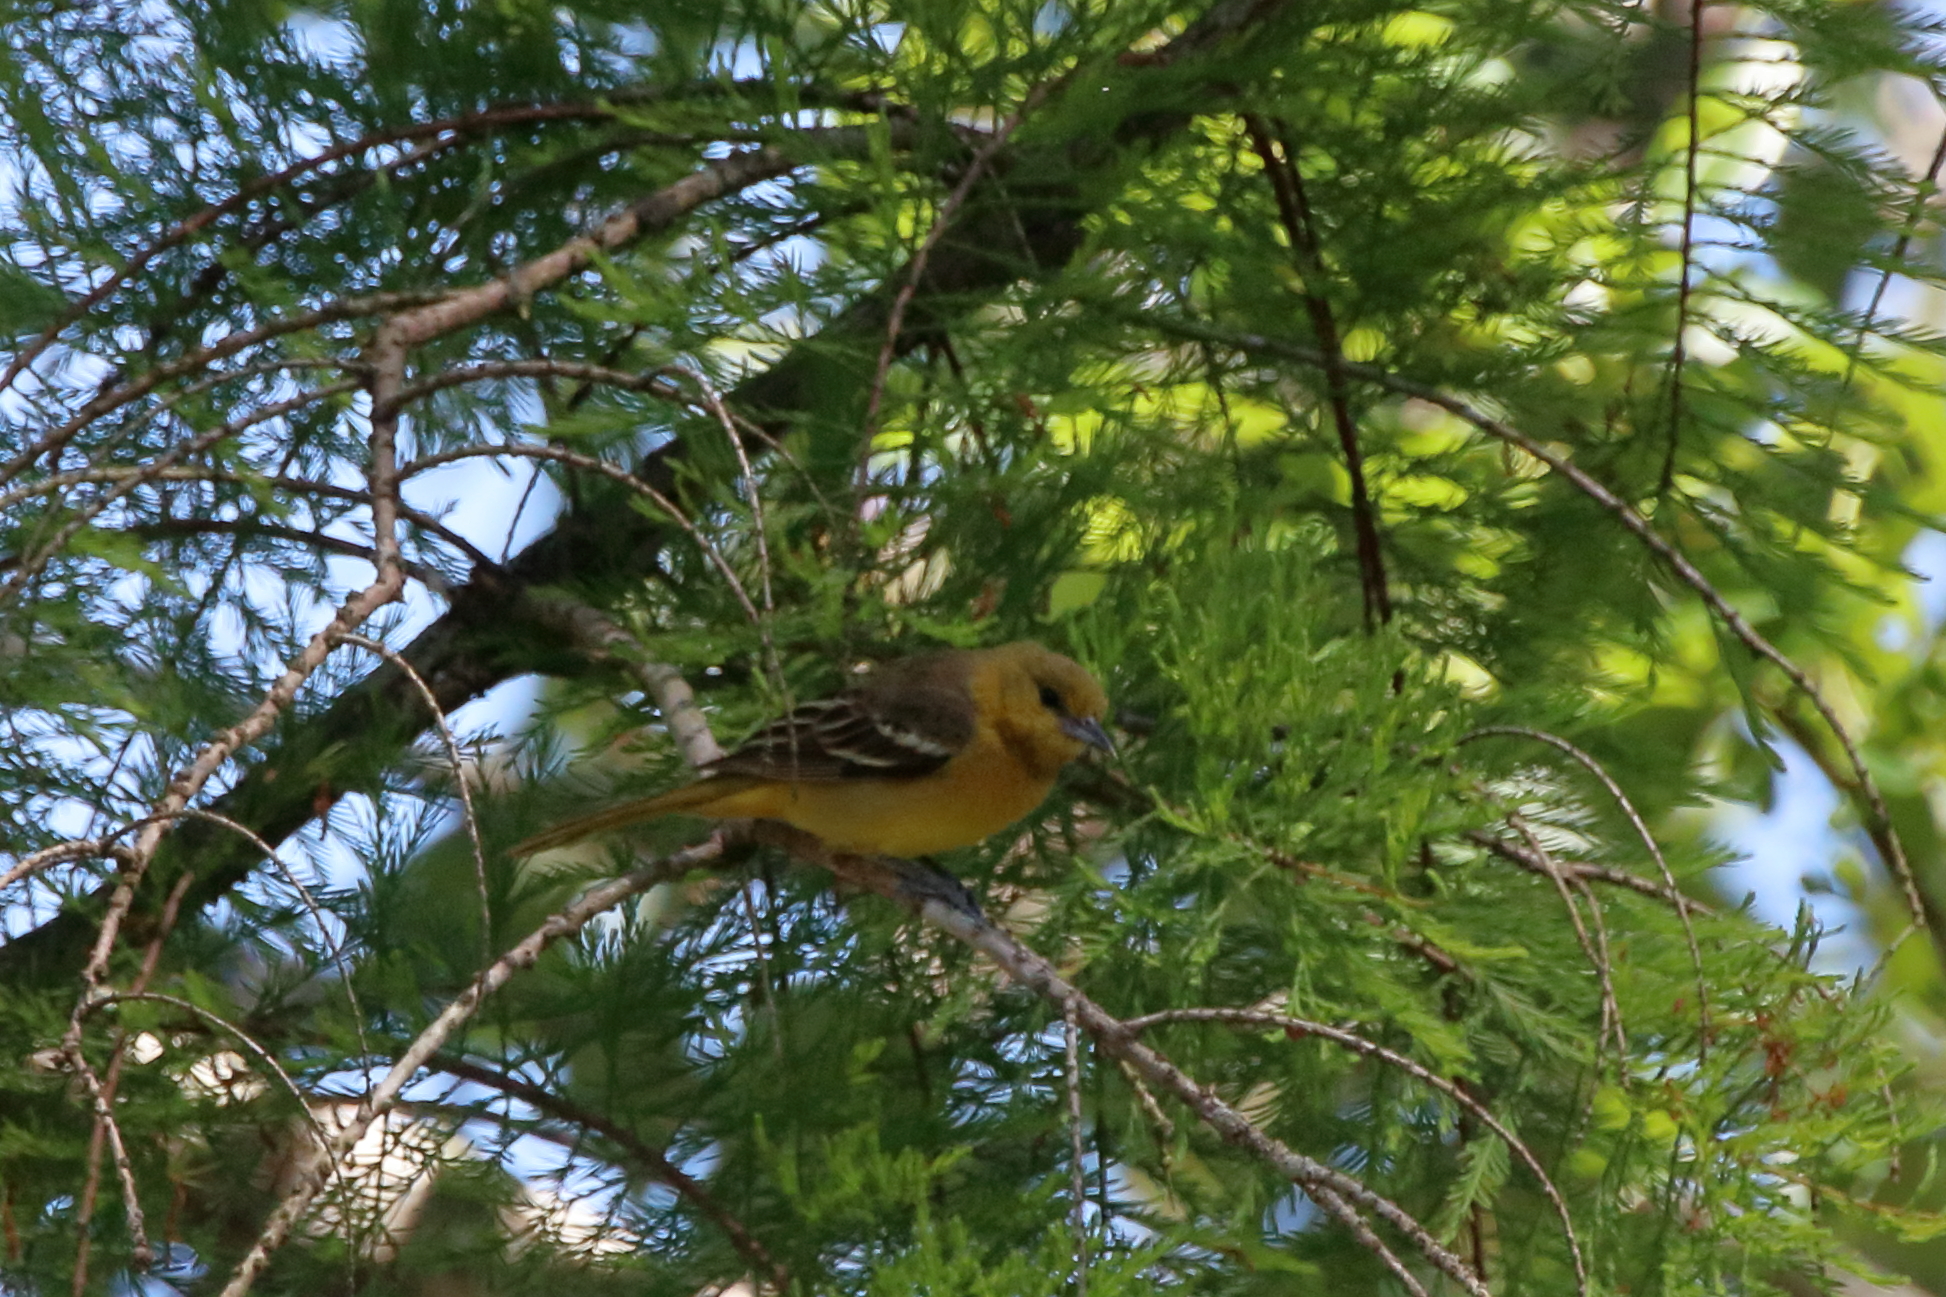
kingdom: Animalia
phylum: Chordata
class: Aves
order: Passeriformes
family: Icteridae
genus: Icterus
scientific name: Icterus spurius
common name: Orchard oriole
